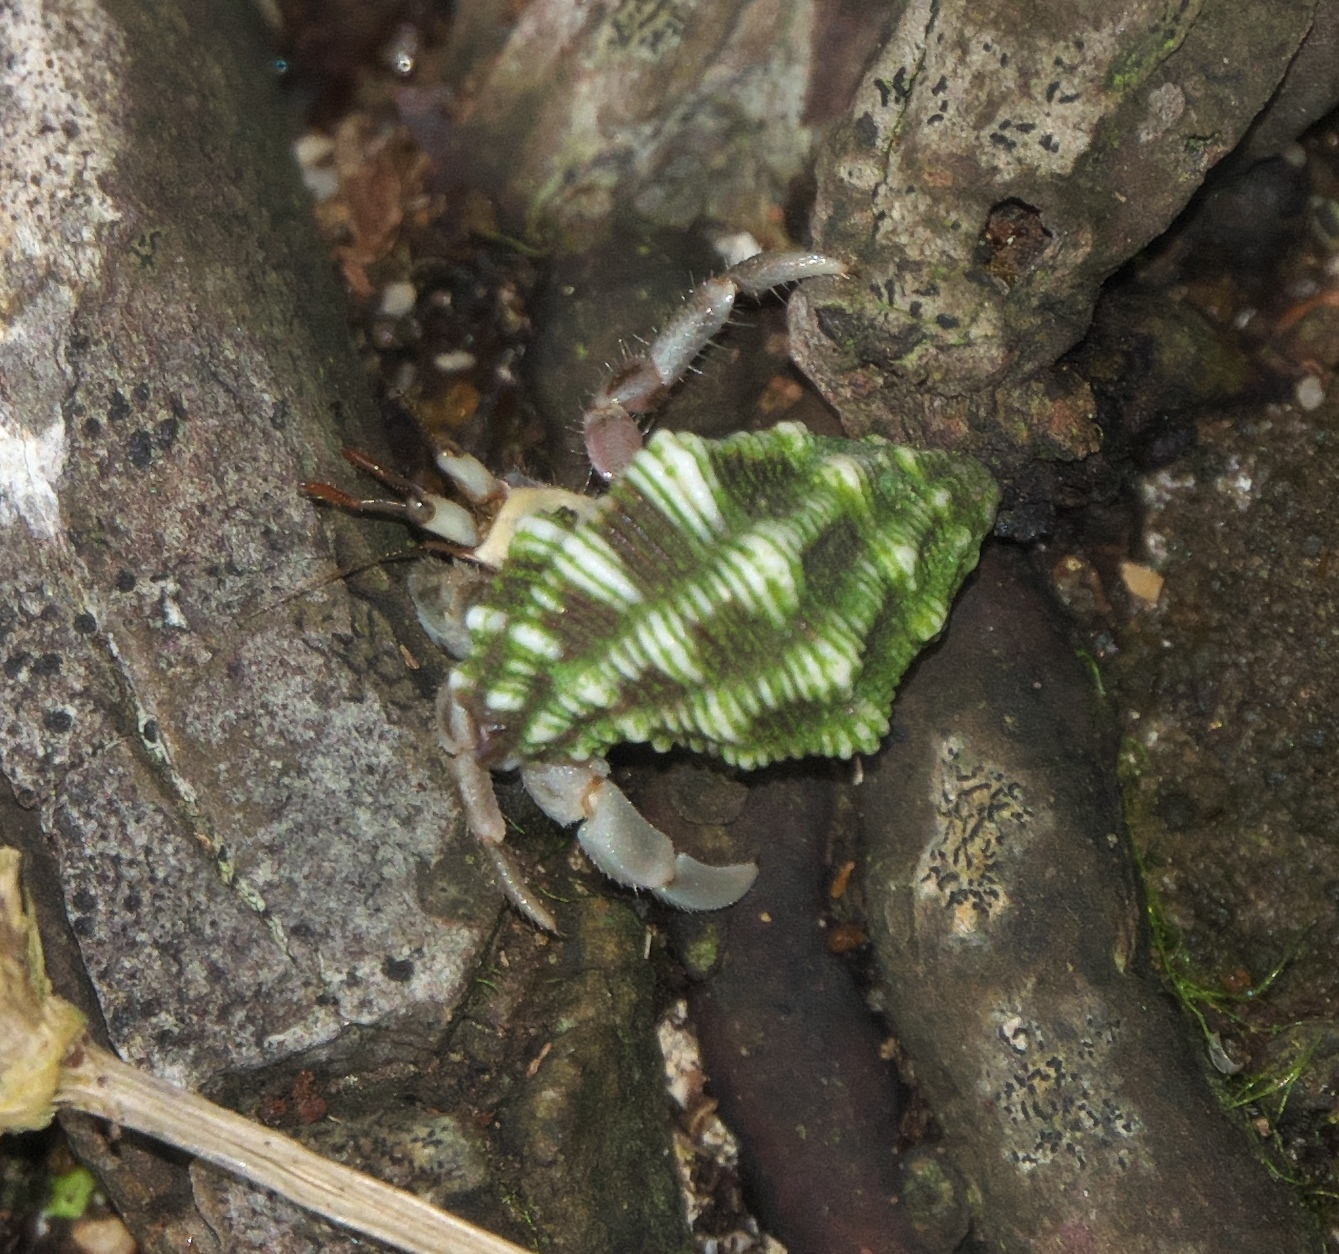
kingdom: Animalia
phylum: Arthropoda
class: Malacostraca
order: Decapoda
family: Coenobitidae
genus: Coenobita
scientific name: Coenobita rugosus
